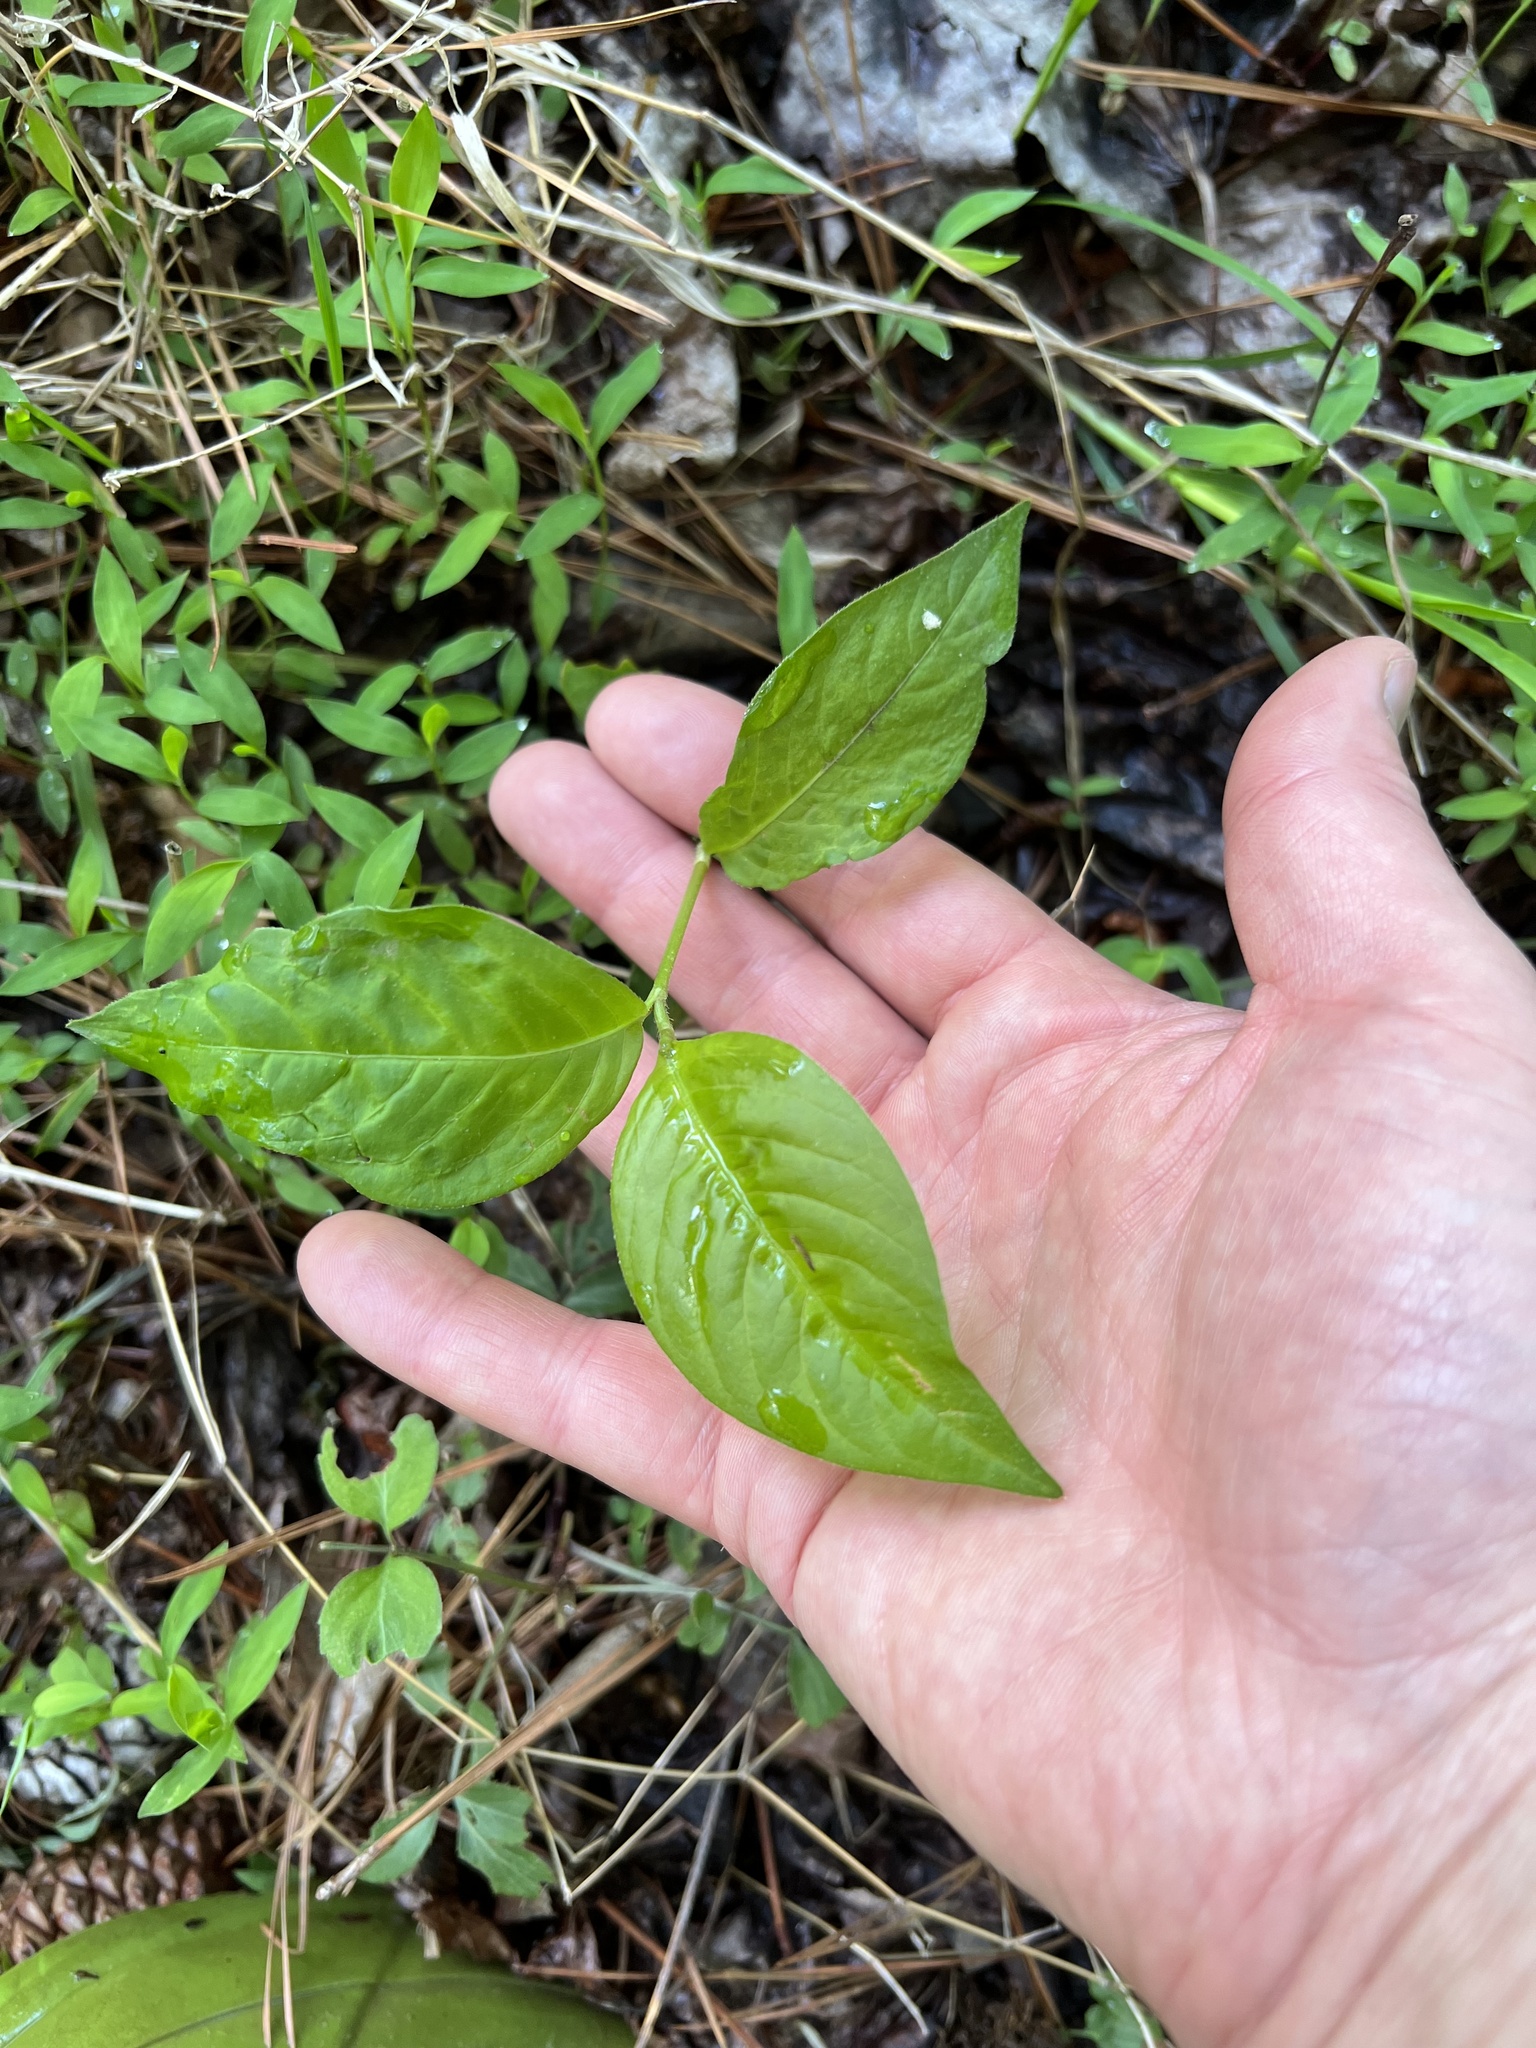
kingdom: Plantae
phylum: Tracheophyta
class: Magnoliopsida
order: Caryophyllales
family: Polygonaceae
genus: Persicaria
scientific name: Persicaria virginiana
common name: Jumpseed
